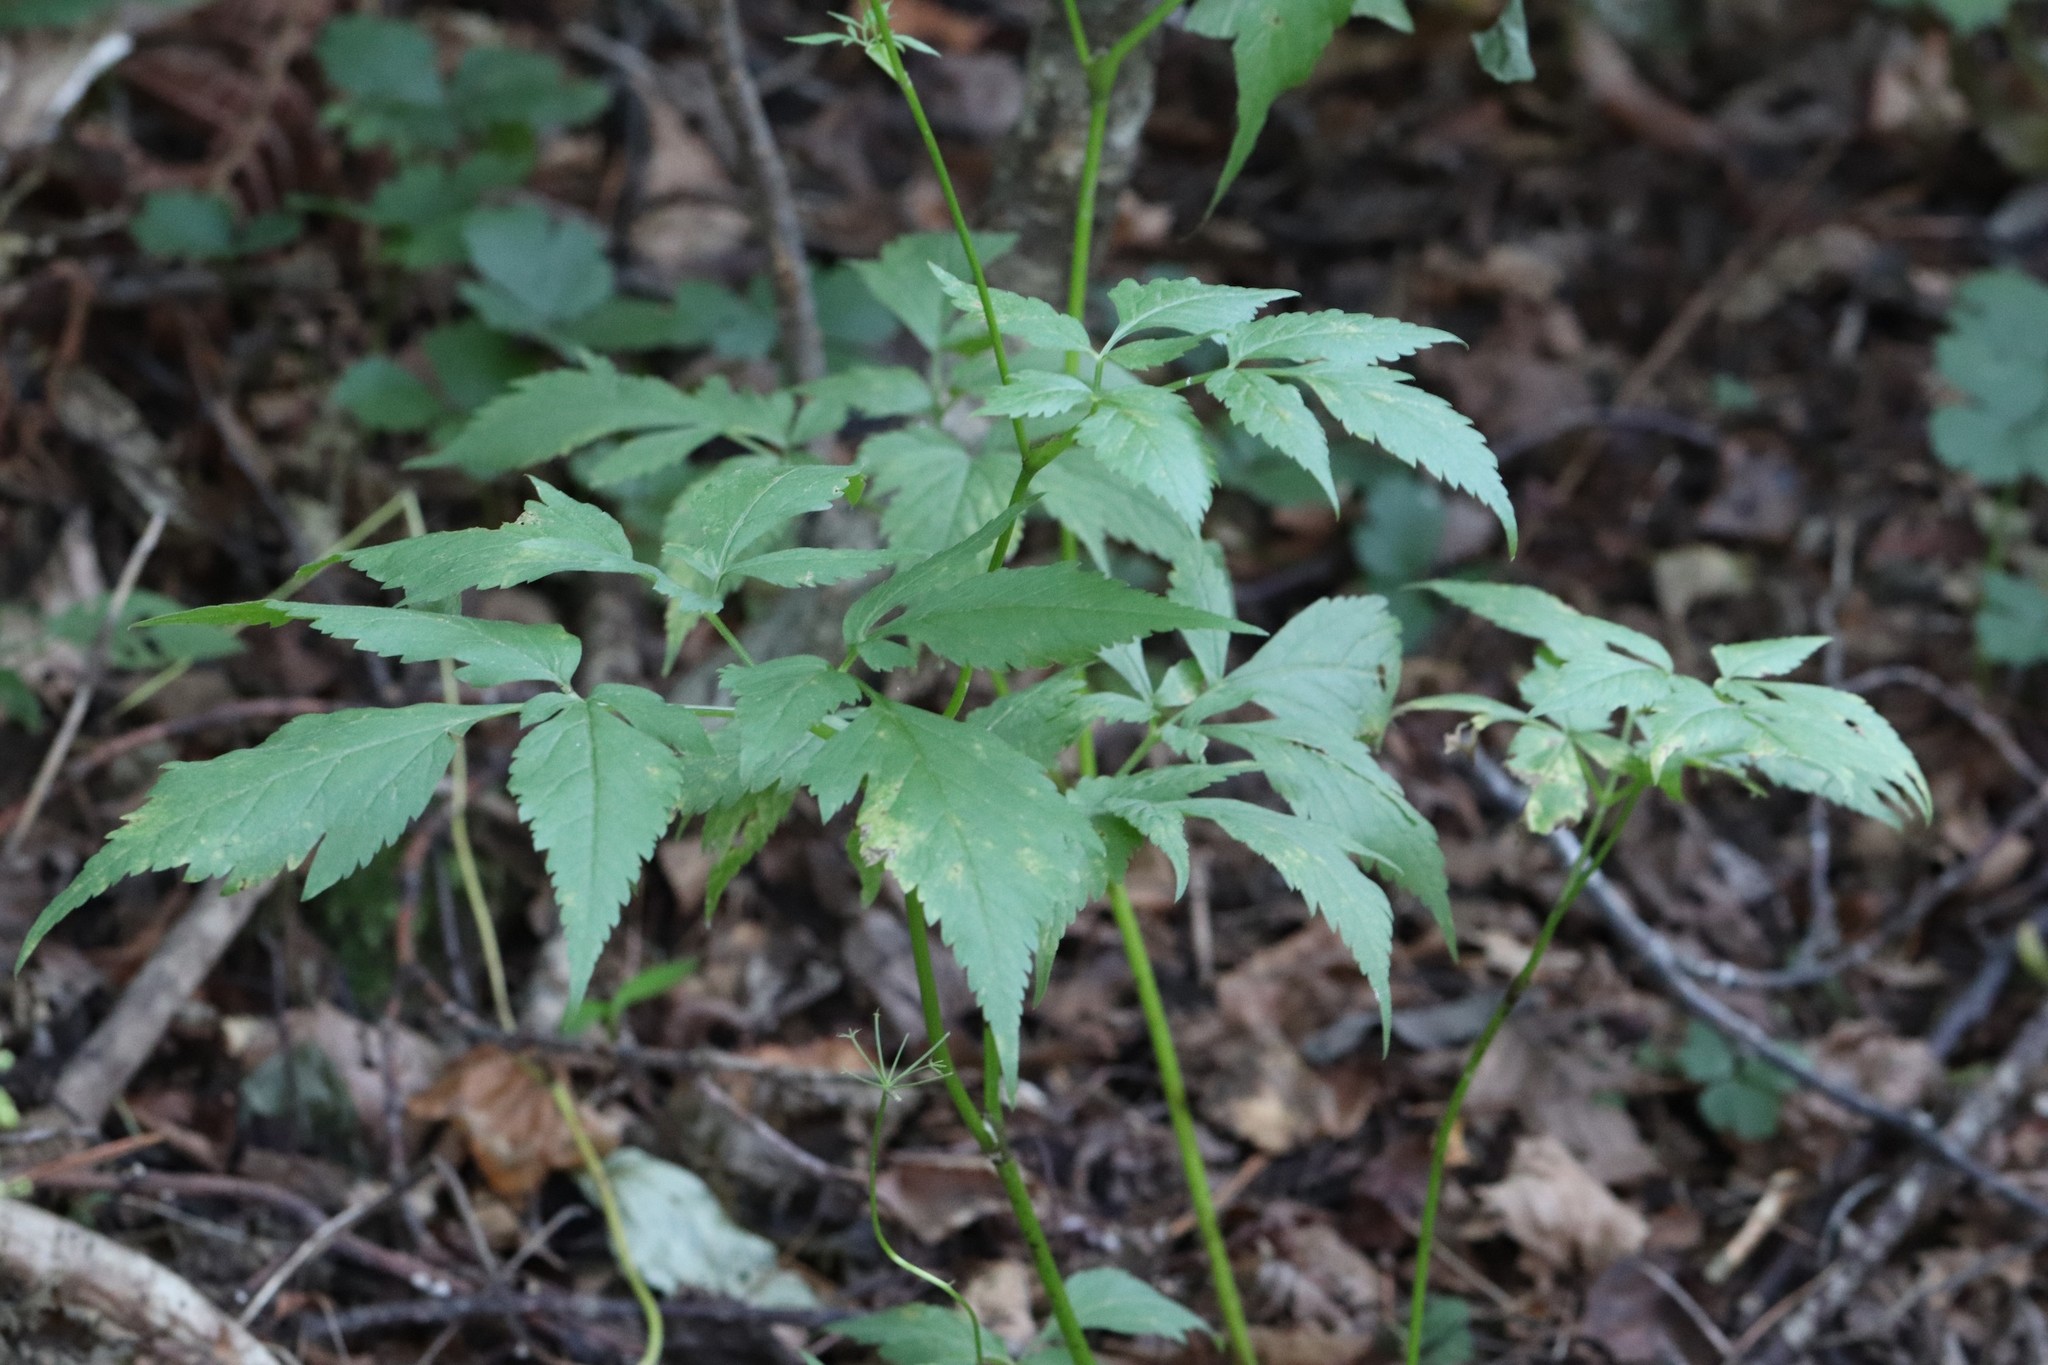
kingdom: Plantae
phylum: Tracheophyta
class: Magnoliopsida
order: Apiales
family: Apiaceae
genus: Spuriopimpinella
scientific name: Spuriopimpinella calycina
